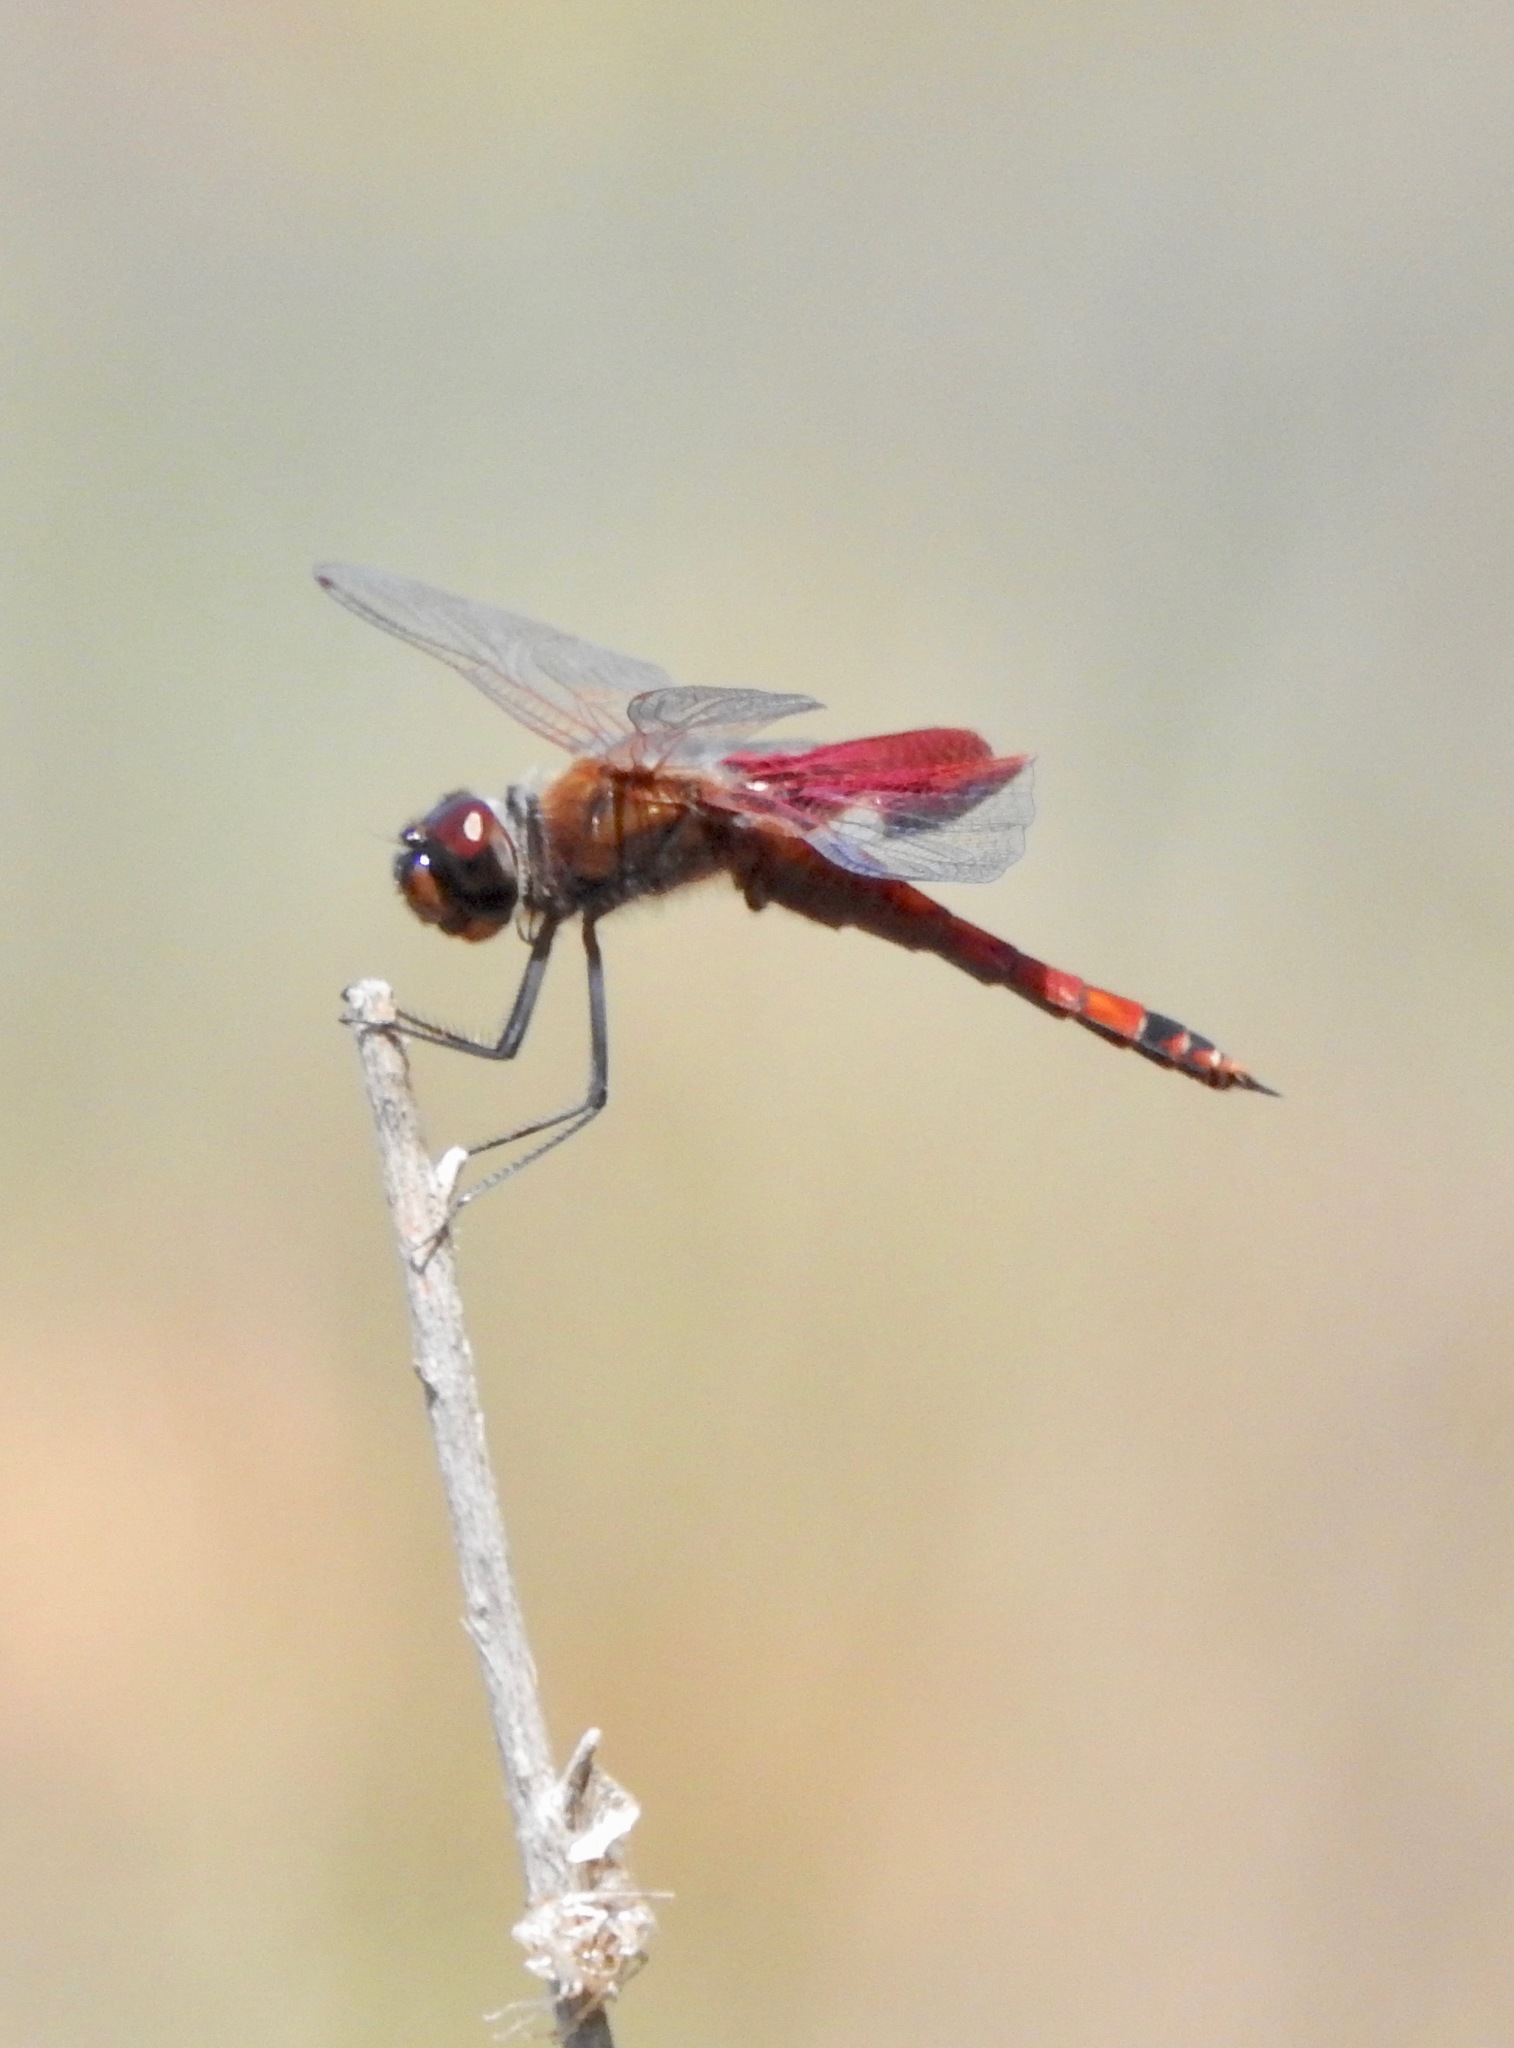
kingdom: Animalia
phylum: Arthropoda
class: Insecta
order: Odonata
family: Libellulidae
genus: Tramea
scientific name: Tramea carolina
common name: Carolina saddlebags
